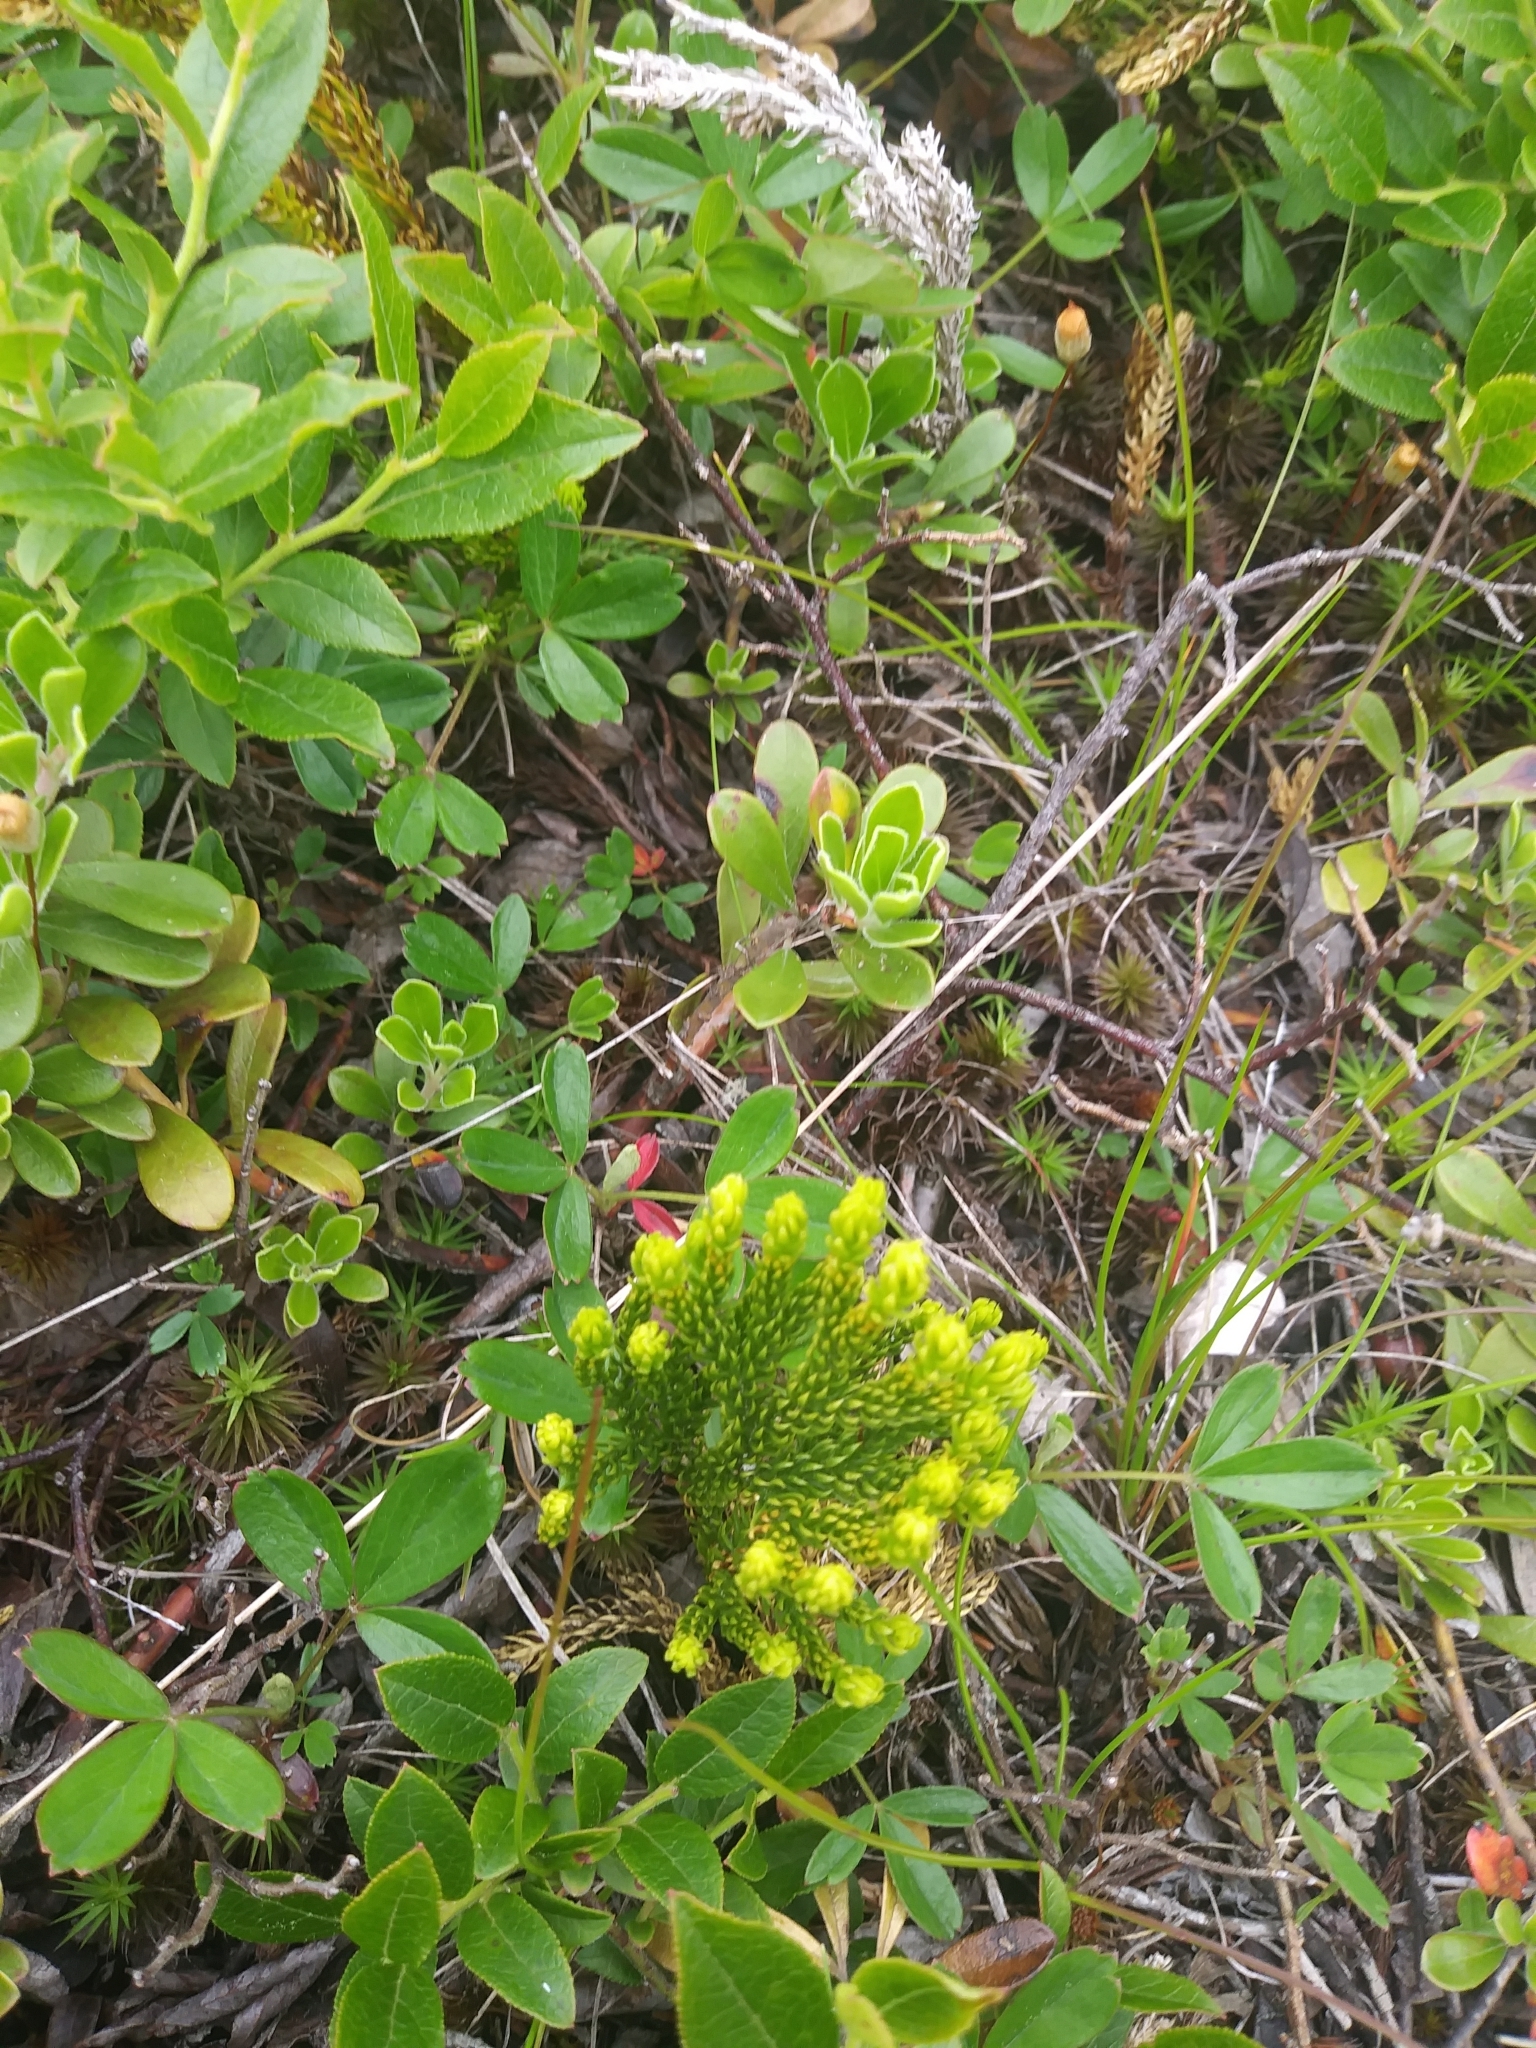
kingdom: Plantae
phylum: Tracheophyta
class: Lycopodiopsida
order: Lycopodiales
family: Lycopodiaceae
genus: Dendrolycopodium
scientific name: Dendrolycopodium hickeyi
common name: Hickey's clubmoss
